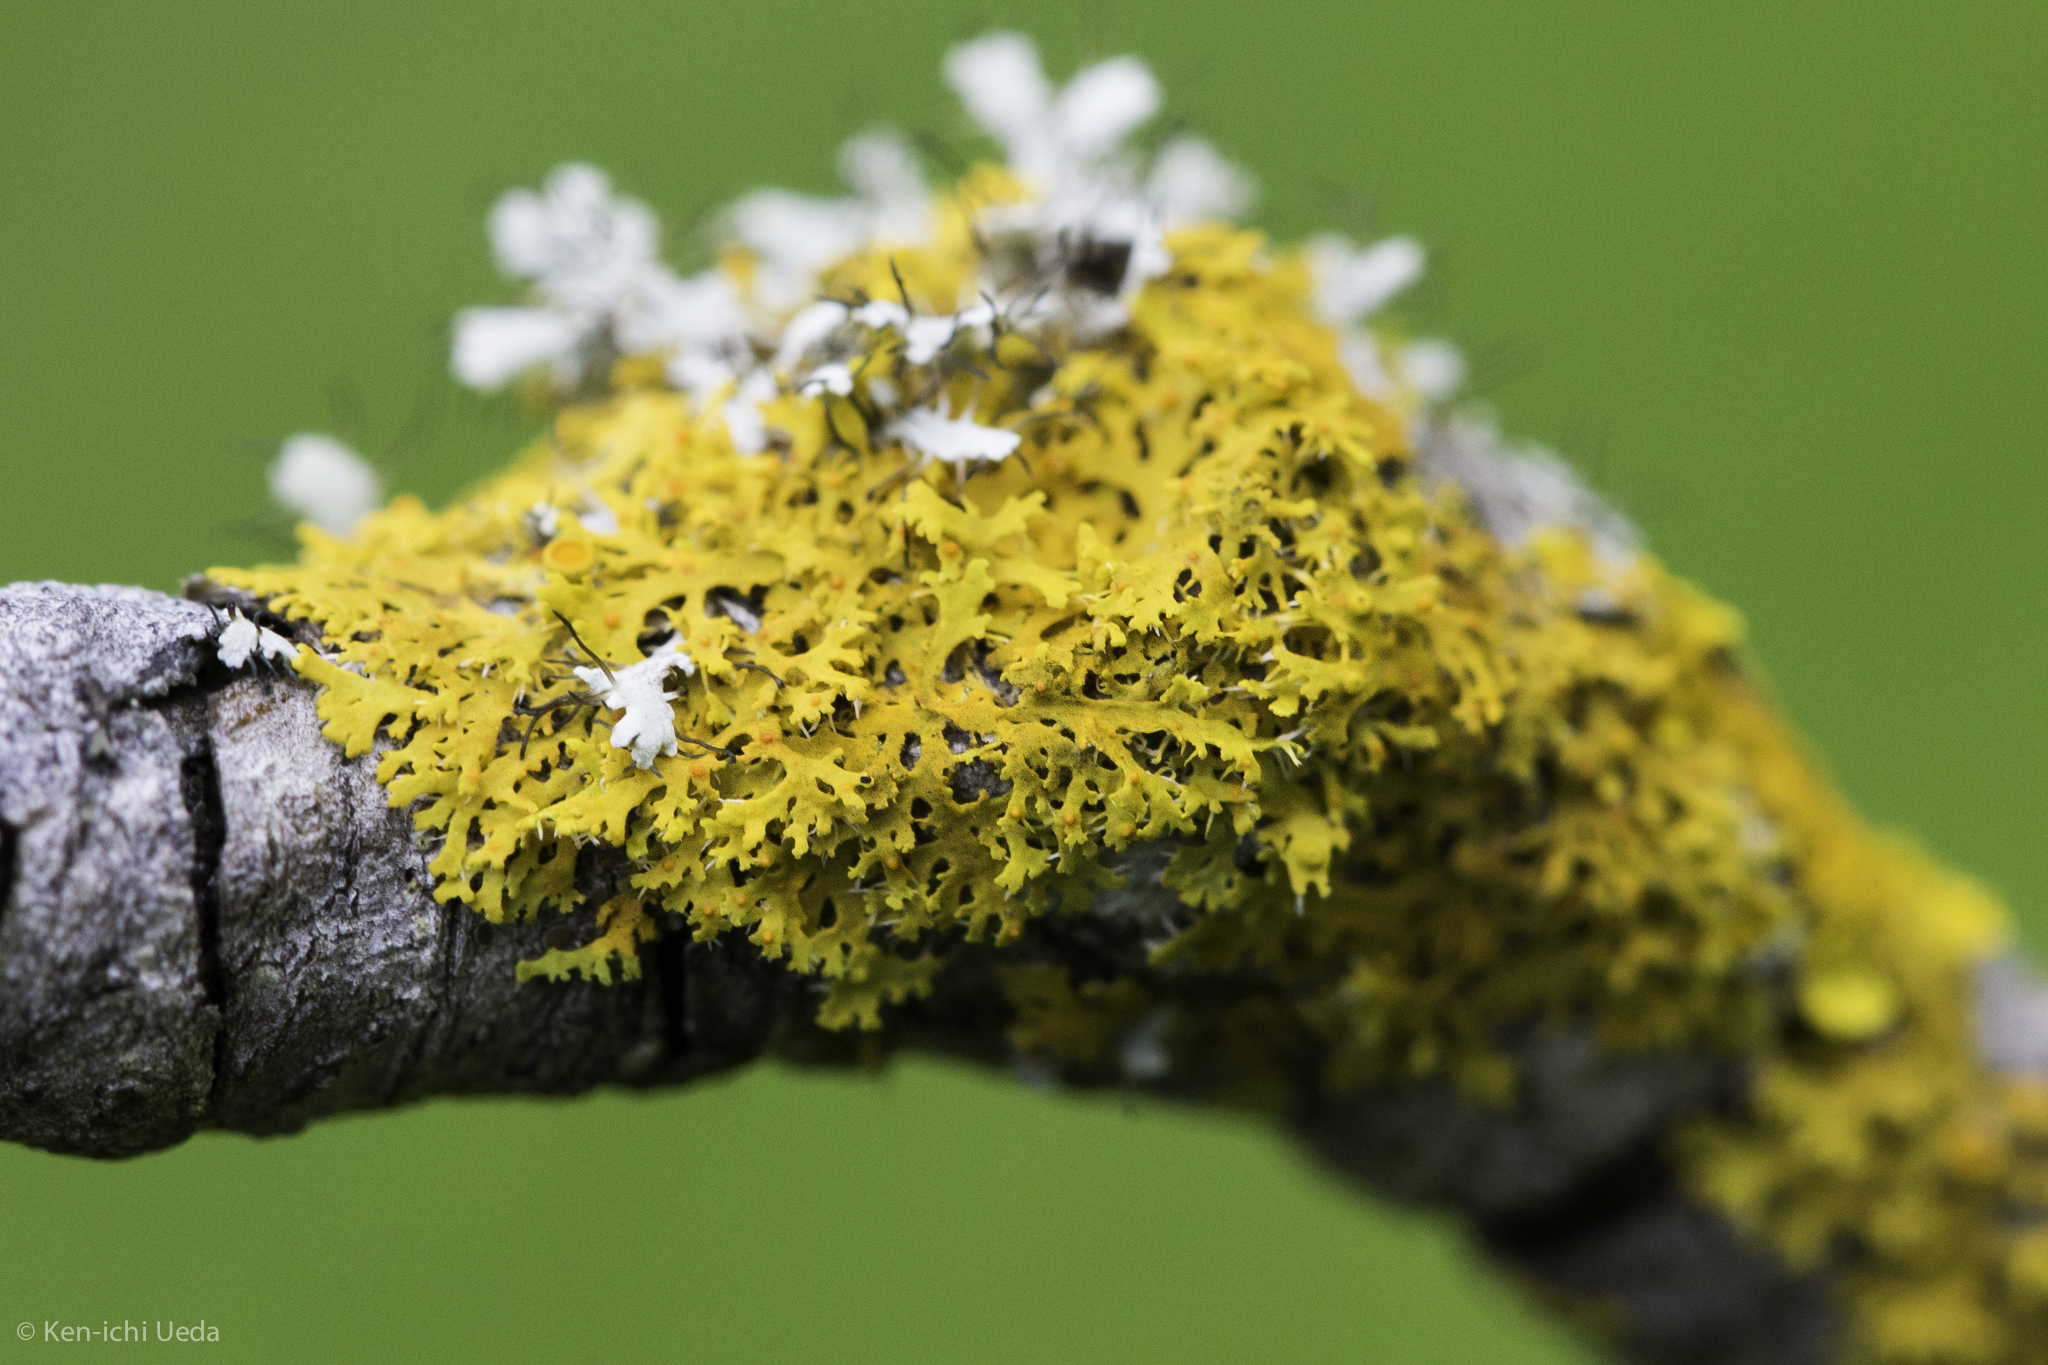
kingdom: Fungi
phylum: Ascomycota
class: Lecanoromycetes
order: Teloschistales
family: Teloschistaceae
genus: Gallowayella
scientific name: Gallowayella hasseana
